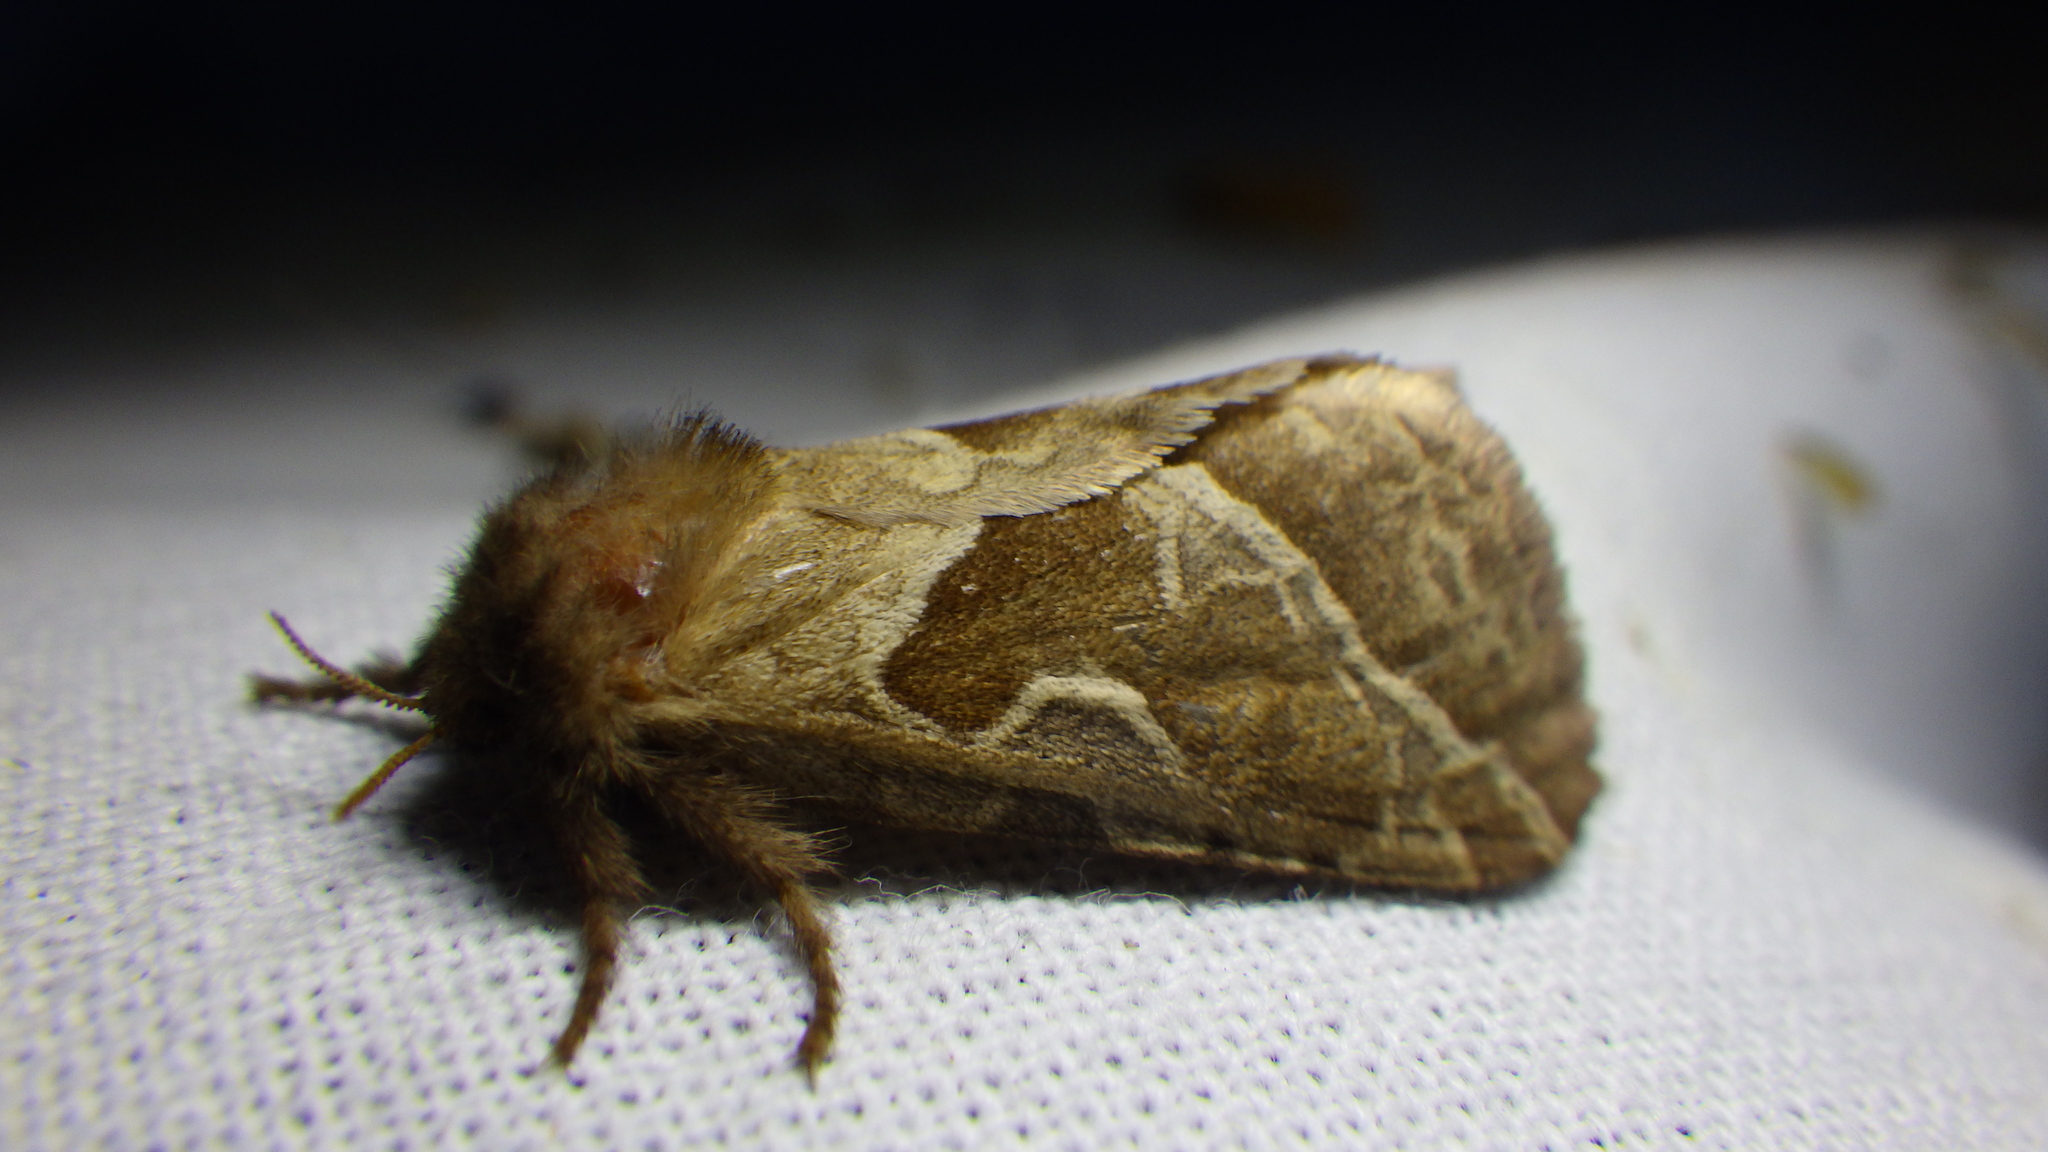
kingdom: Animalia
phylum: Arthropoda
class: Insecta
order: Lepidoptera
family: Hepialidae
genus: Triodia
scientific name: Triodia sylvina
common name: Orange swift
